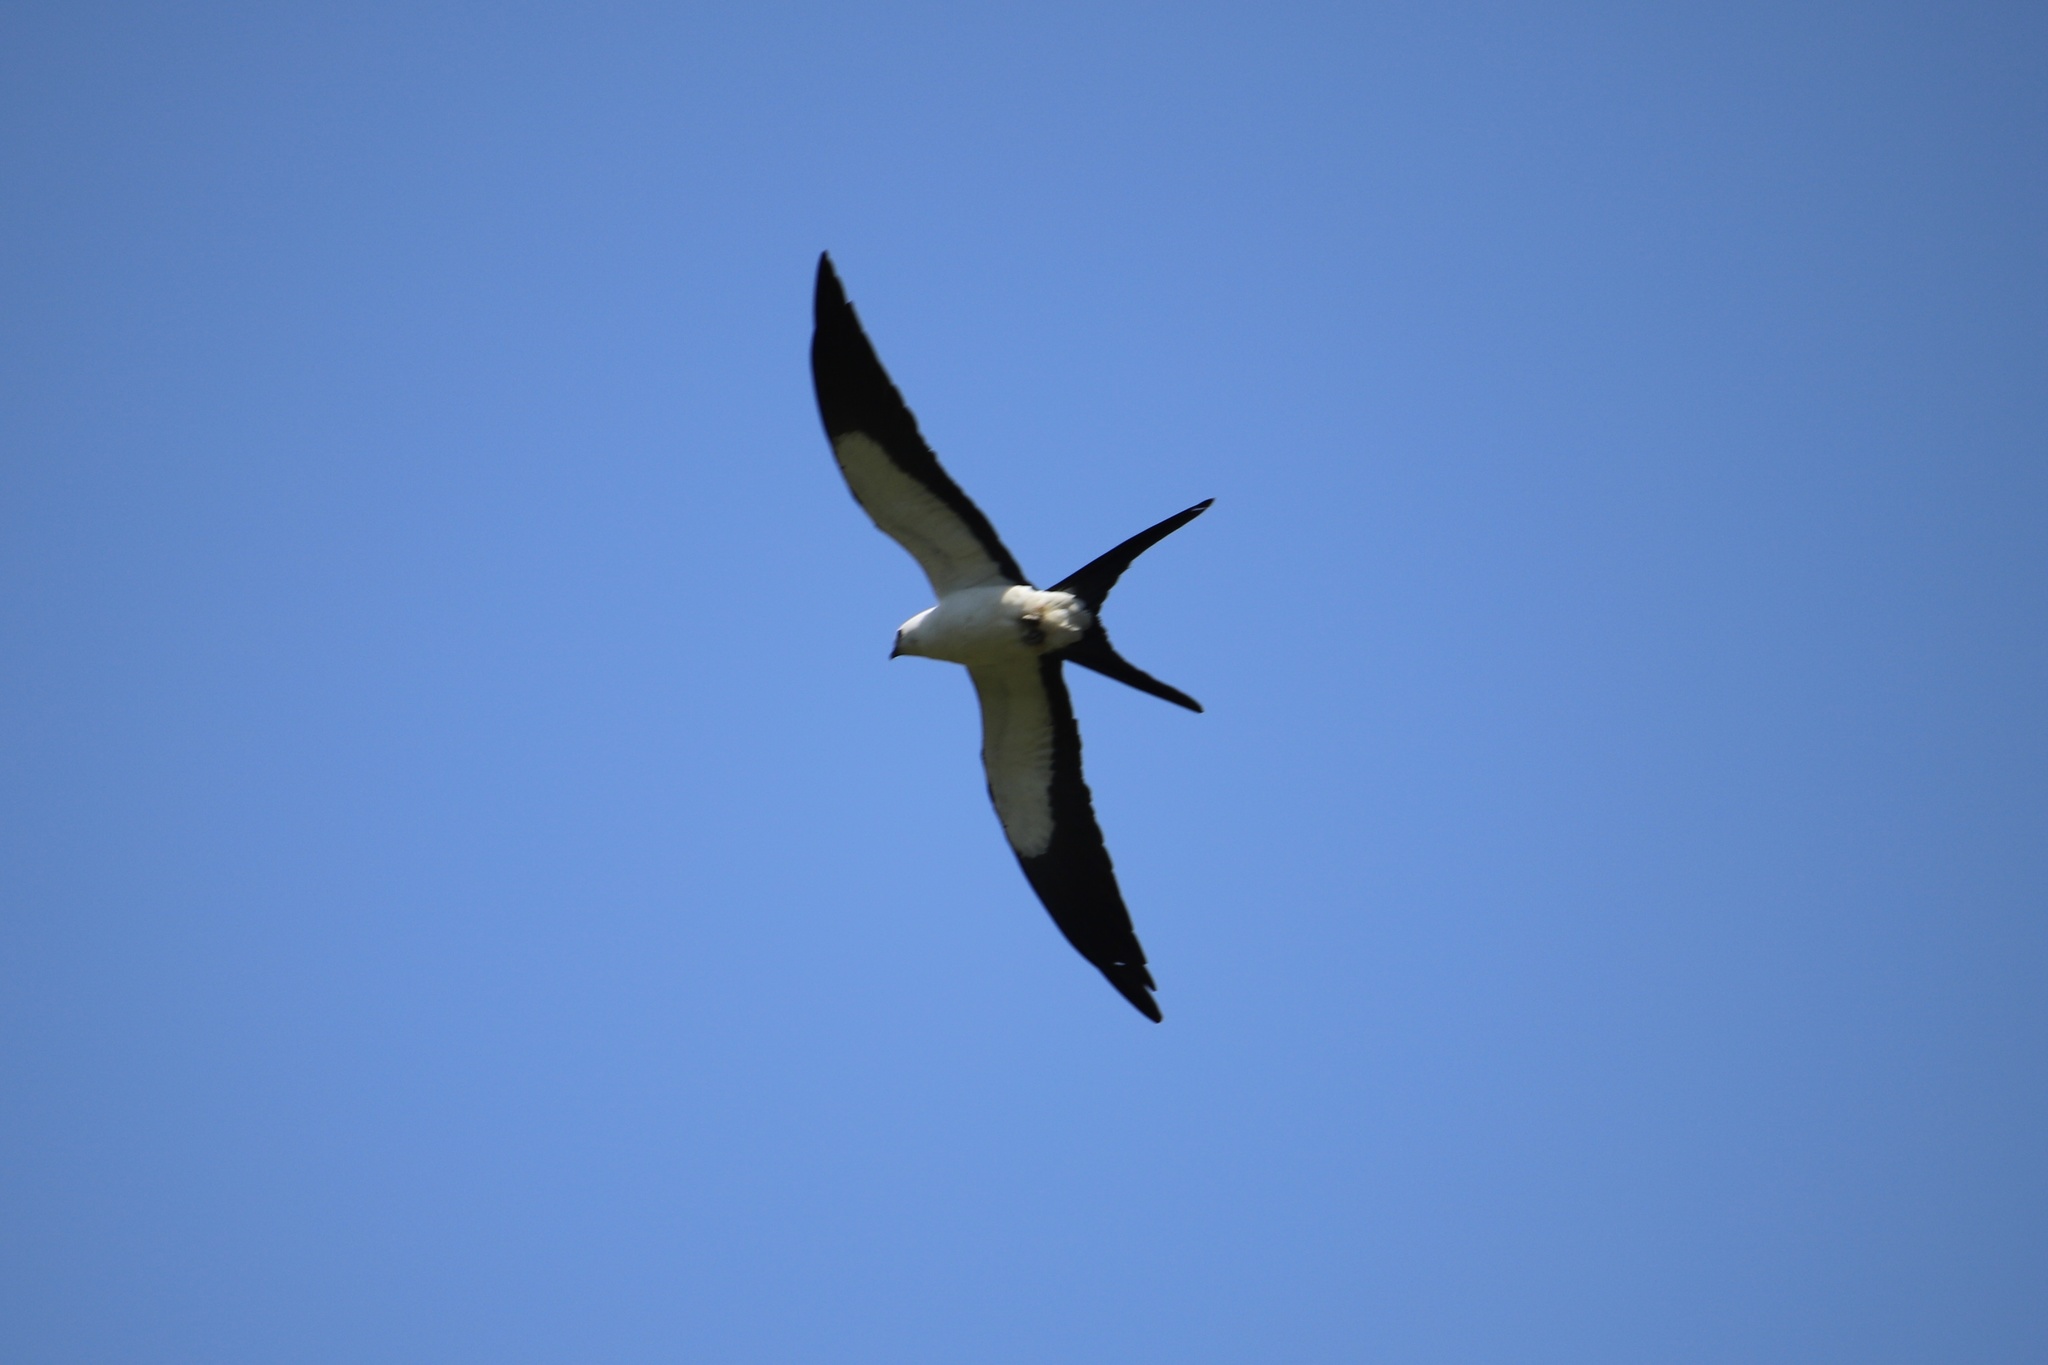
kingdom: Animalia
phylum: Chordata
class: Aves
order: Accipitriformes
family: Accipitridae
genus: Elanoides
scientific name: Elanoides forficatus
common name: Swallow-tailed kite
